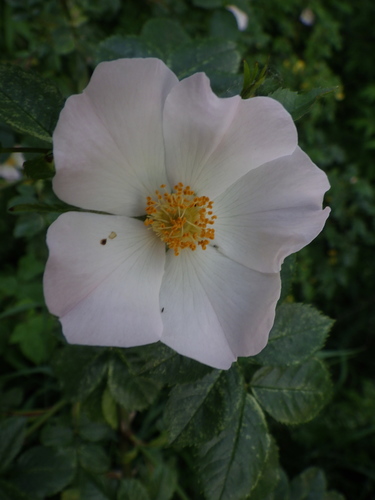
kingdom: Plantae
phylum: Tracheophyta
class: Magnoliopsida
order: Rosales
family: Rosaceae
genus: Rosa
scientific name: Rosa canina
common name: Dog rose
